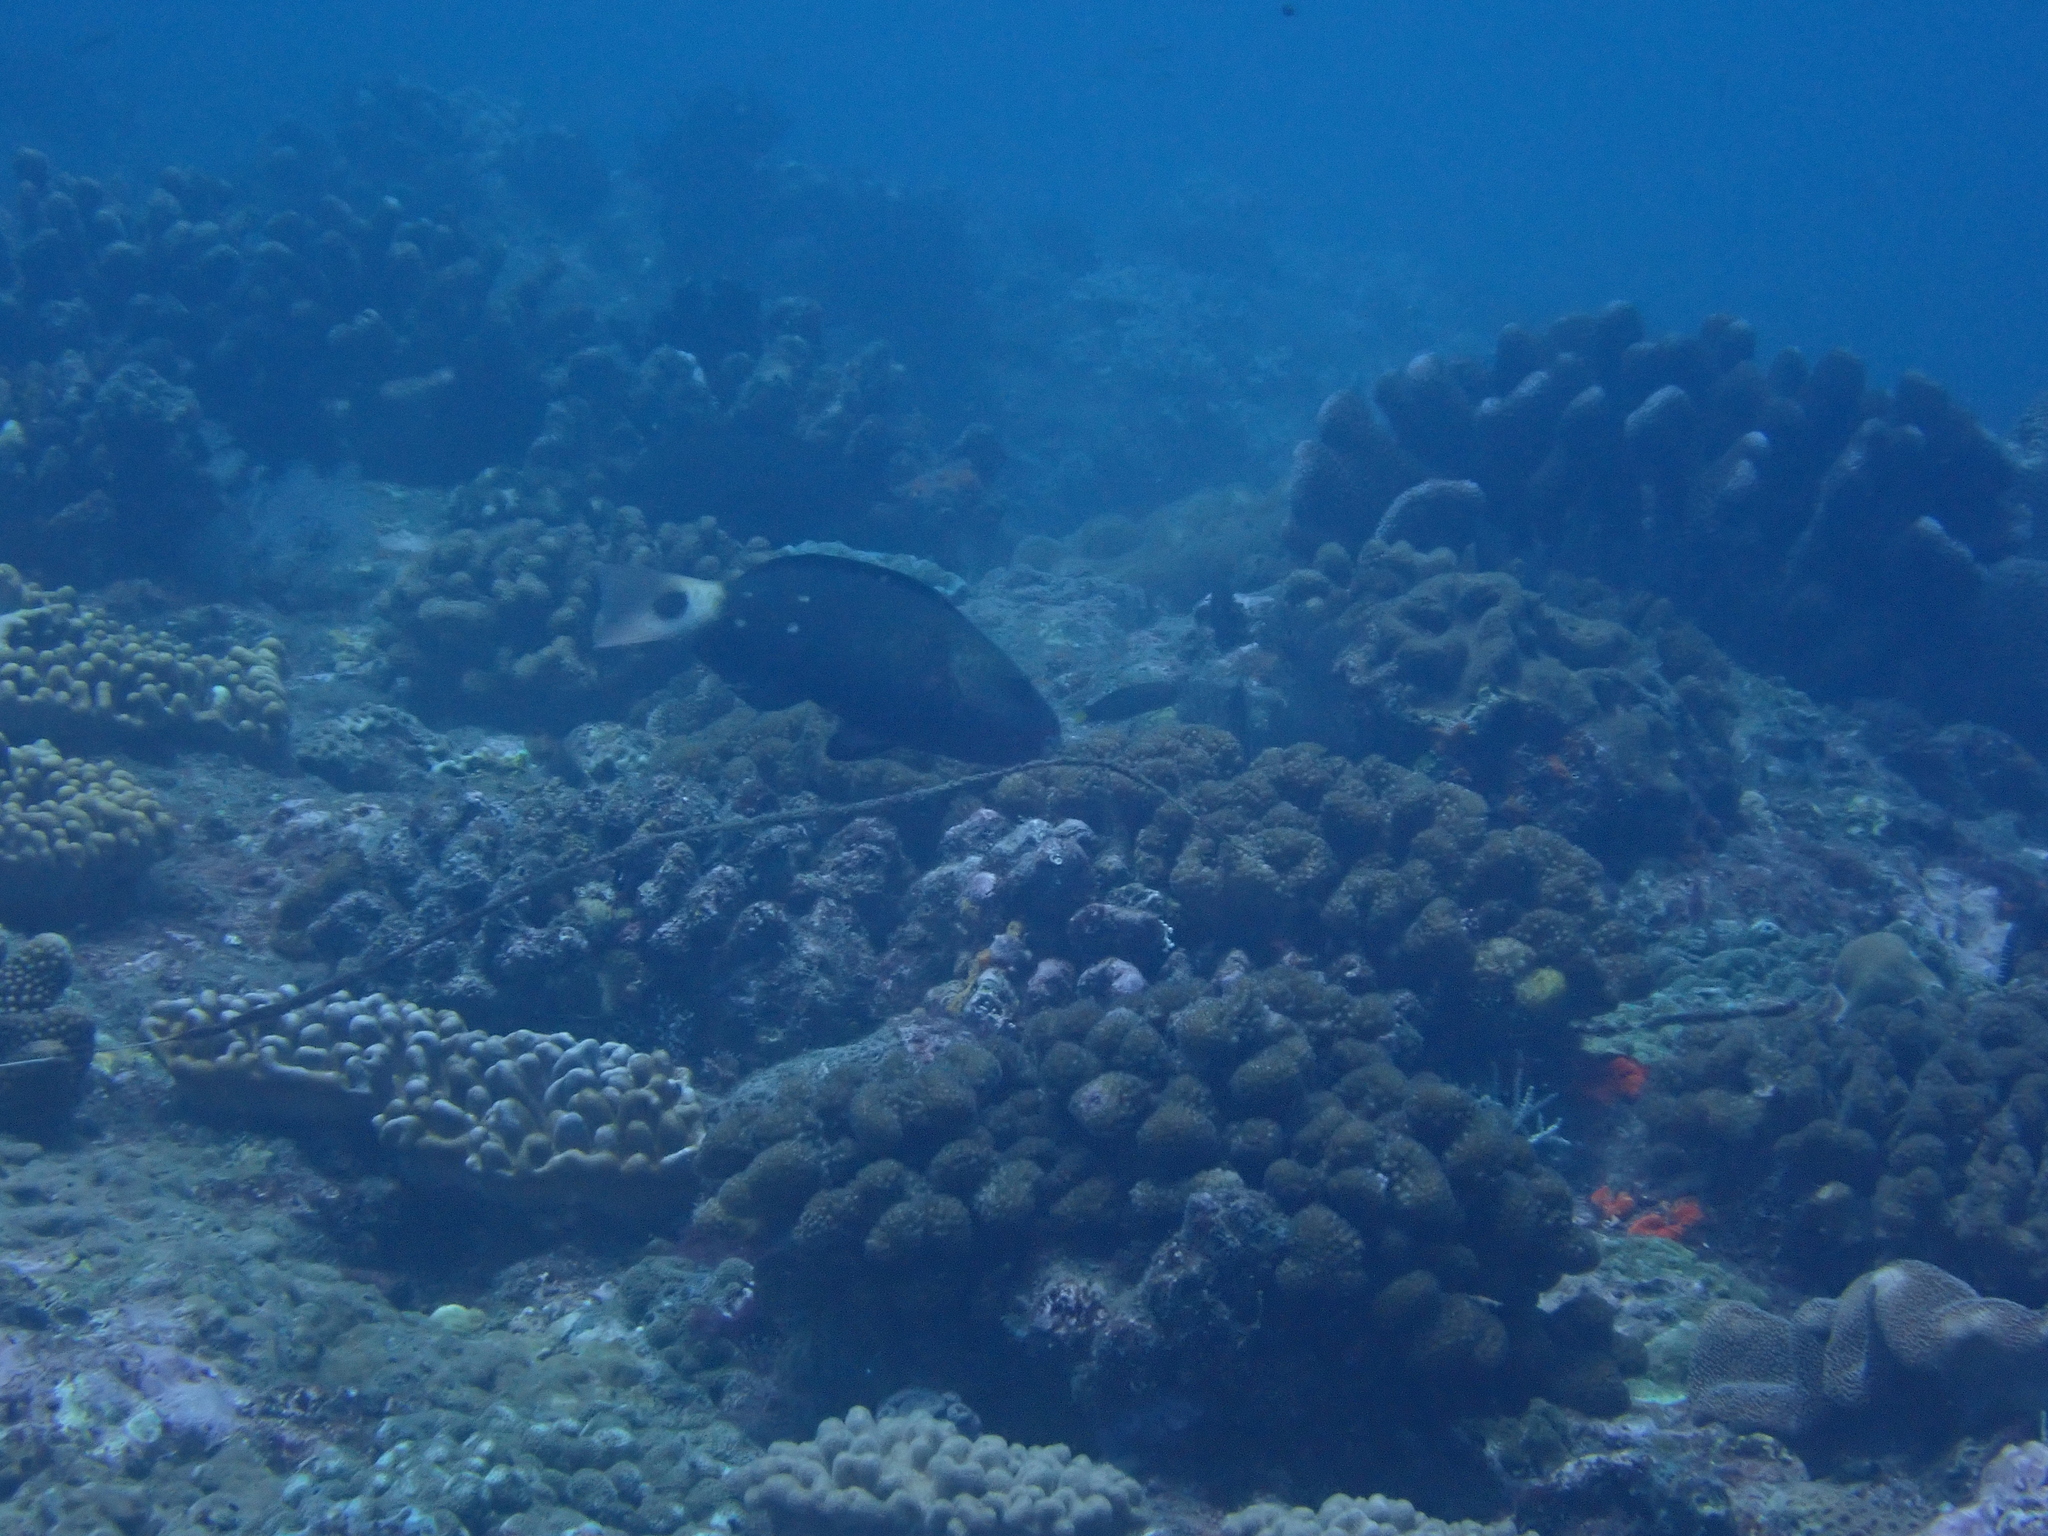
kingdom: Animalia
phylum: Chordata
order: Perciformes
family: Scaridae
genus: Chlorurus
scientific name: Chlorurus spilurus
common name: Bullethead parrotfish
